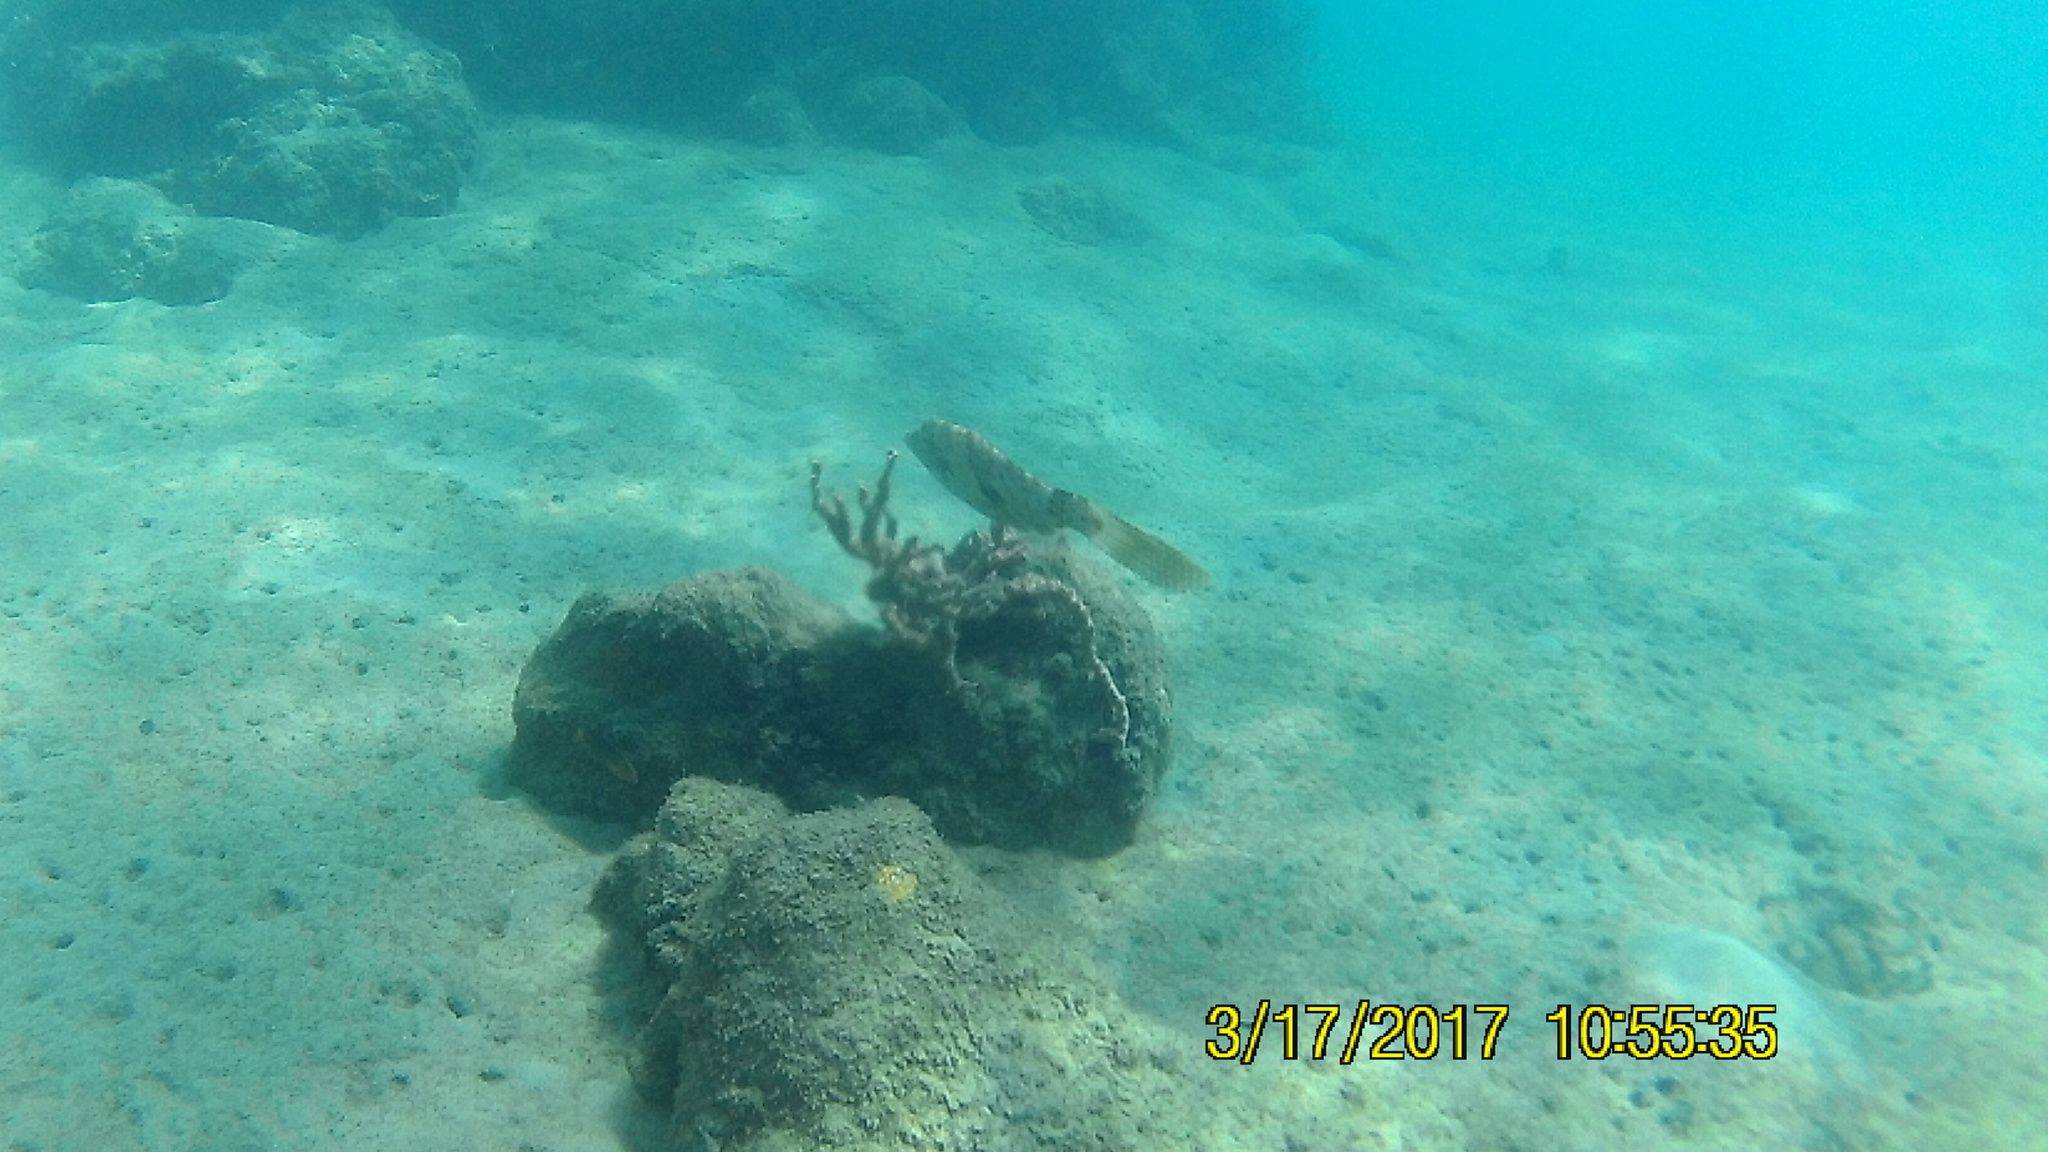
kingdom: Animalia
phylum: Chordata
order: Tetraodontiformes
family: Monacanthidae
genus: Aluterus
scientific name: Aluterus scriptus
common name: Scribbled leatherjacket filefish
